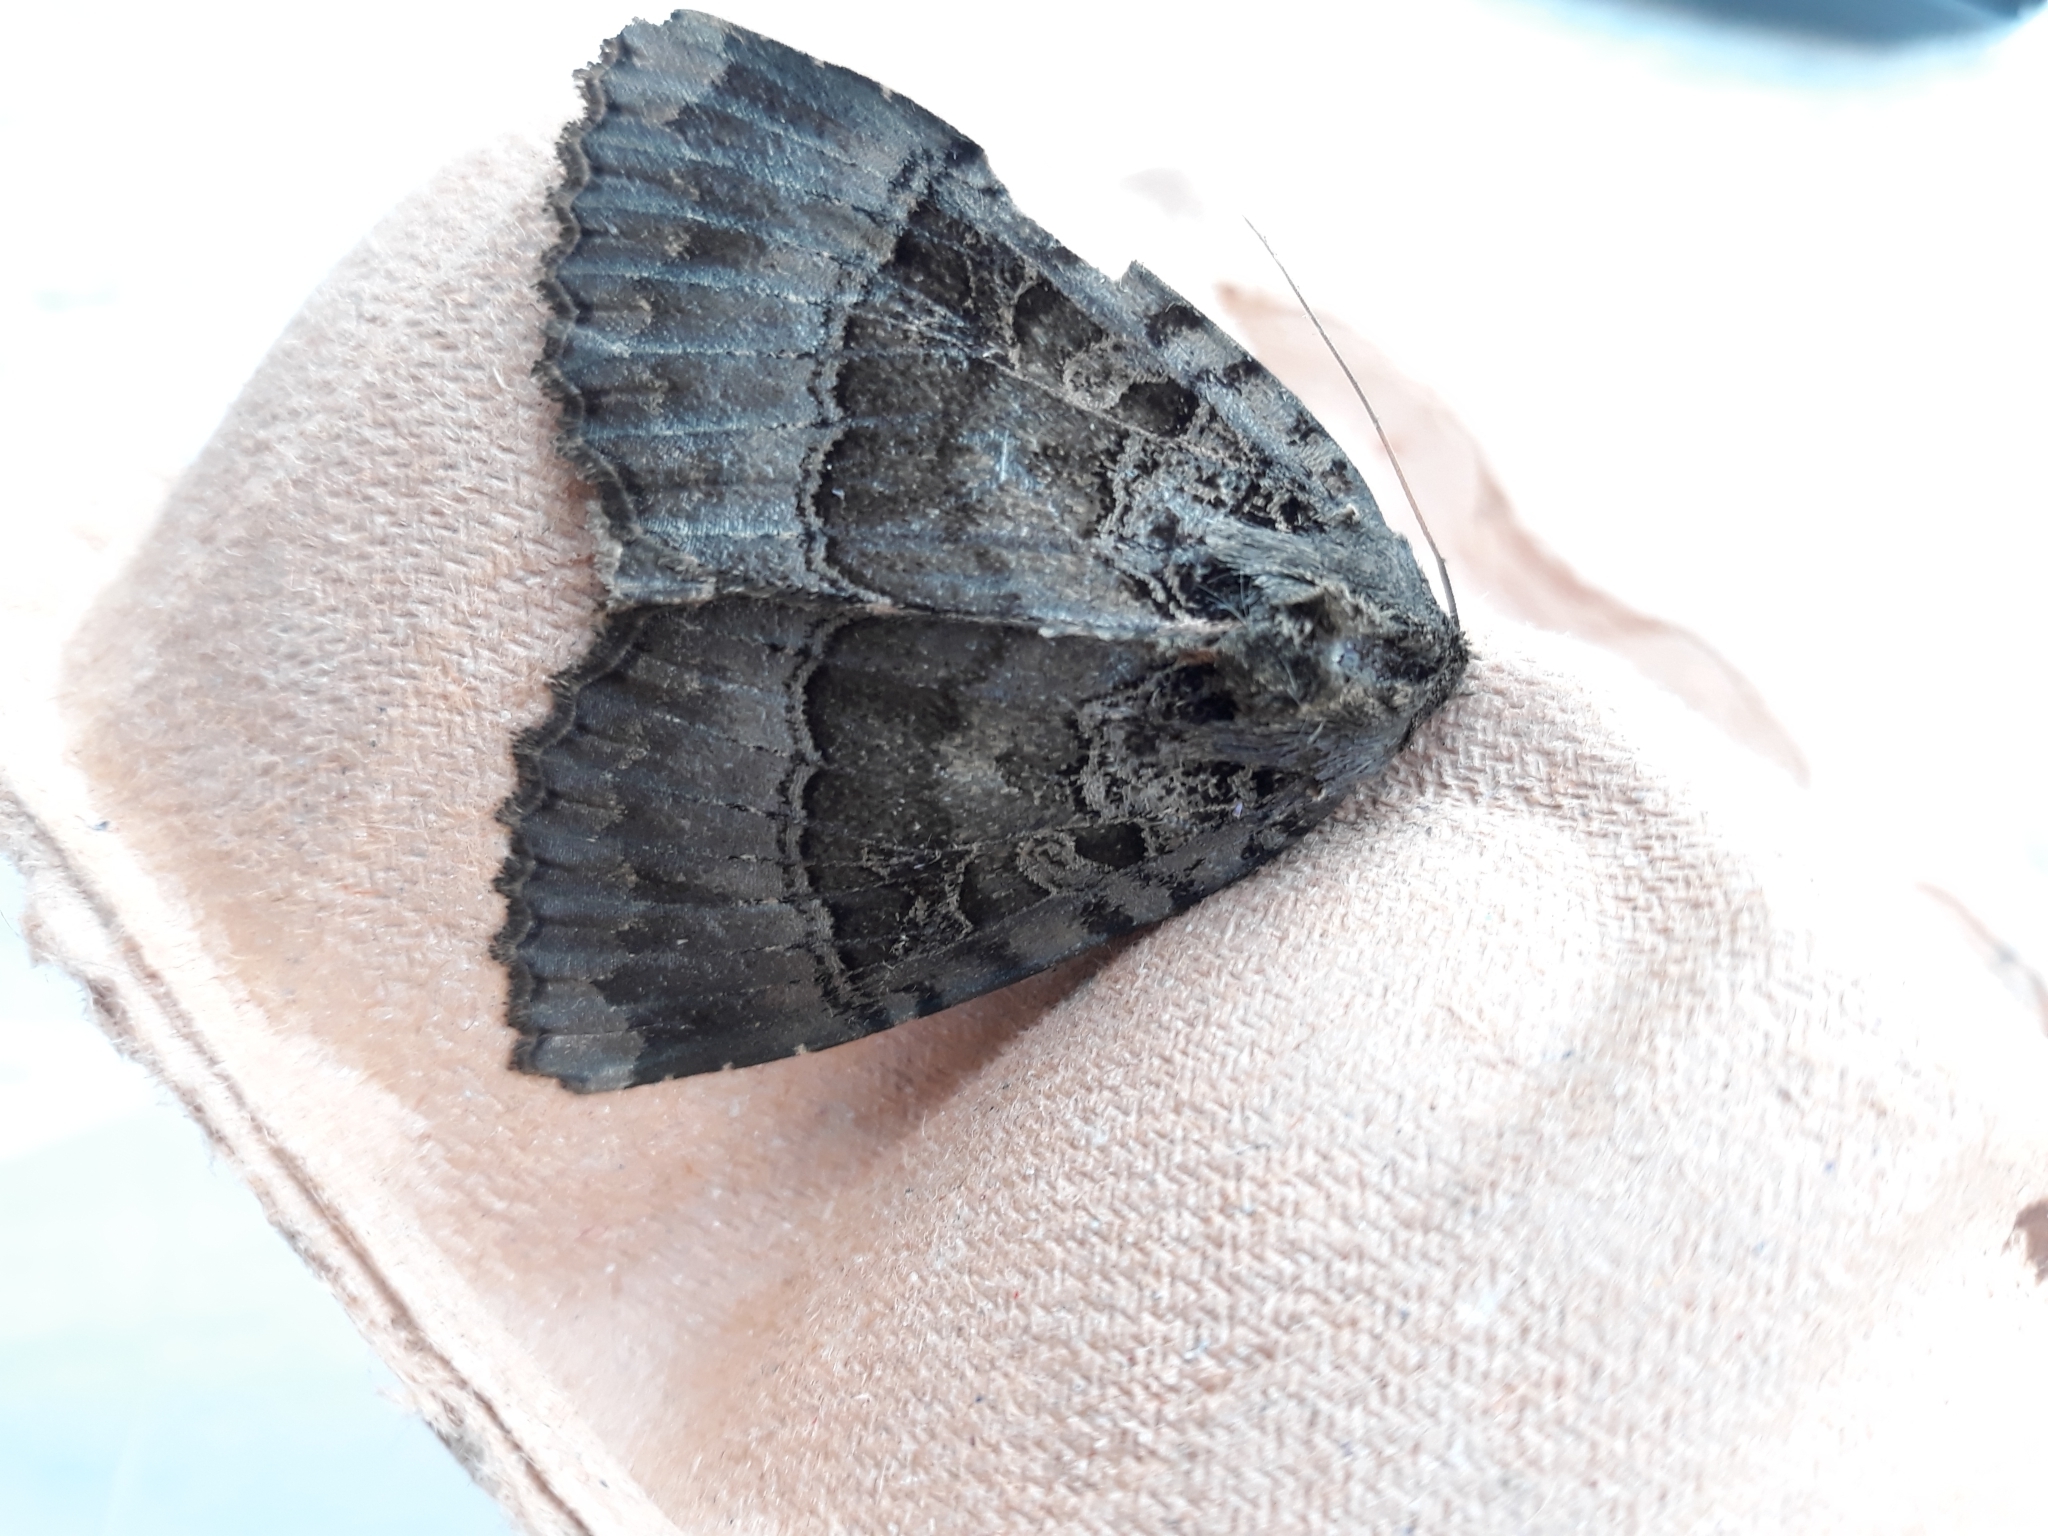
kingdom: Animalia
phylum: Arthropoda
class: Insecta
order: Lepidoptera
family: Noctuidae
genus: Mormo
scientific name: Mormo maura
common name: Old lady
